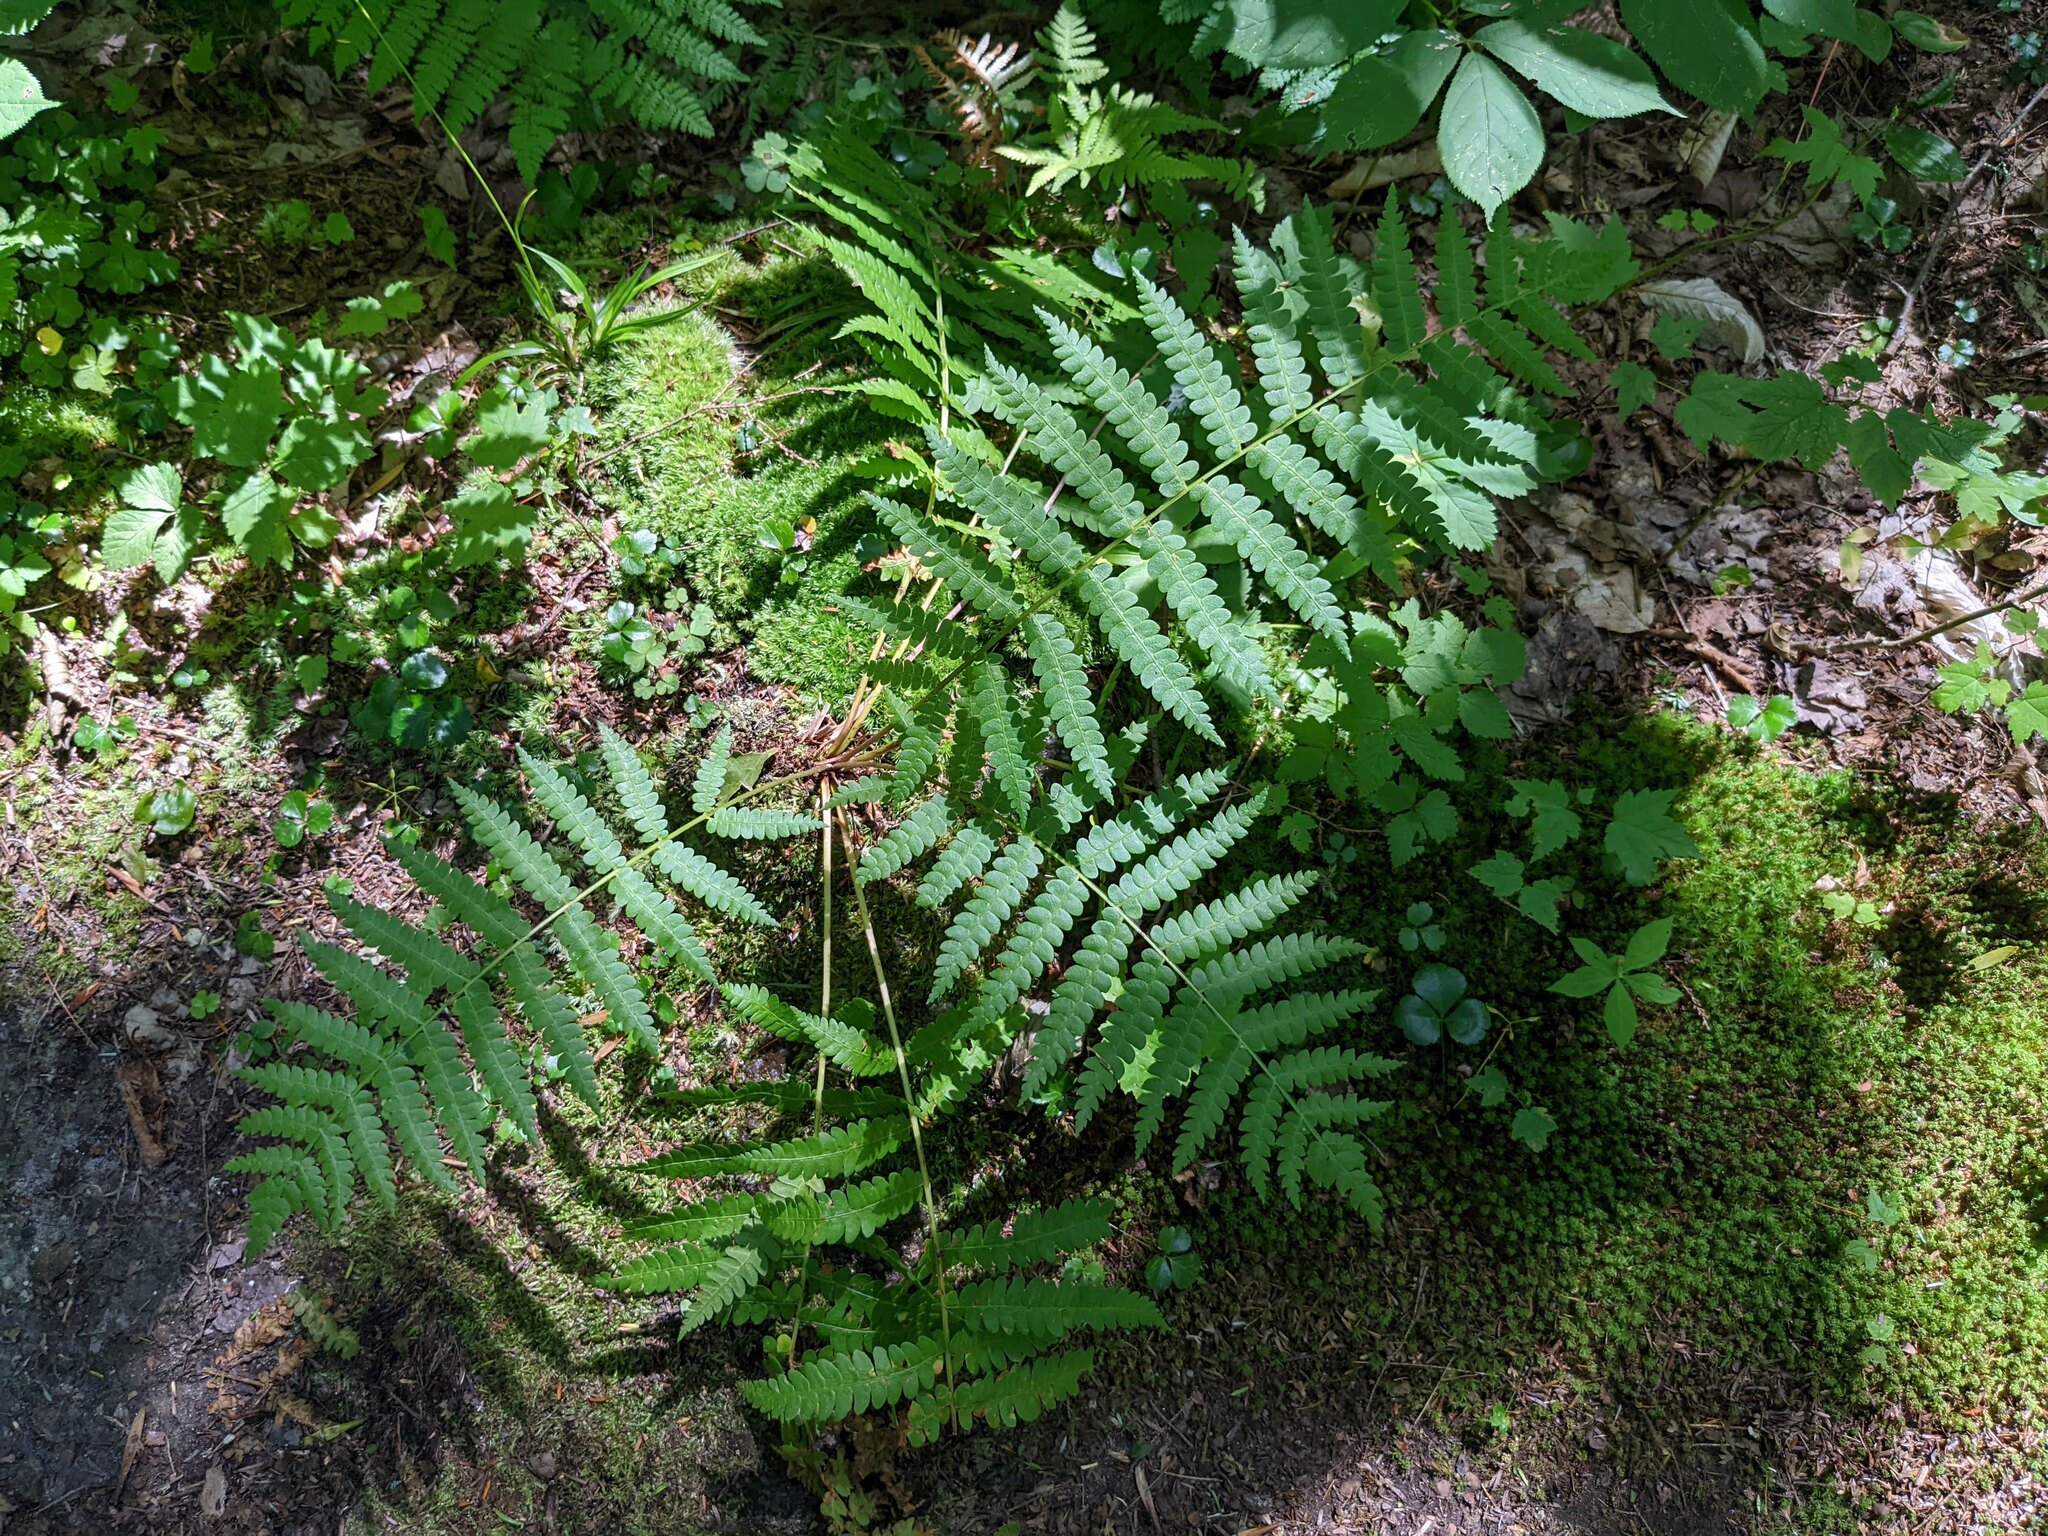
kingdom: Plantae
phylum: Tracheophyta
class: Polypodiopsida
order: Osmundales
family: Osmundaceae
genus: Osmundastrum
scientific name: Osmundastrum cinnamomeum
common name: Cinnamon fern
